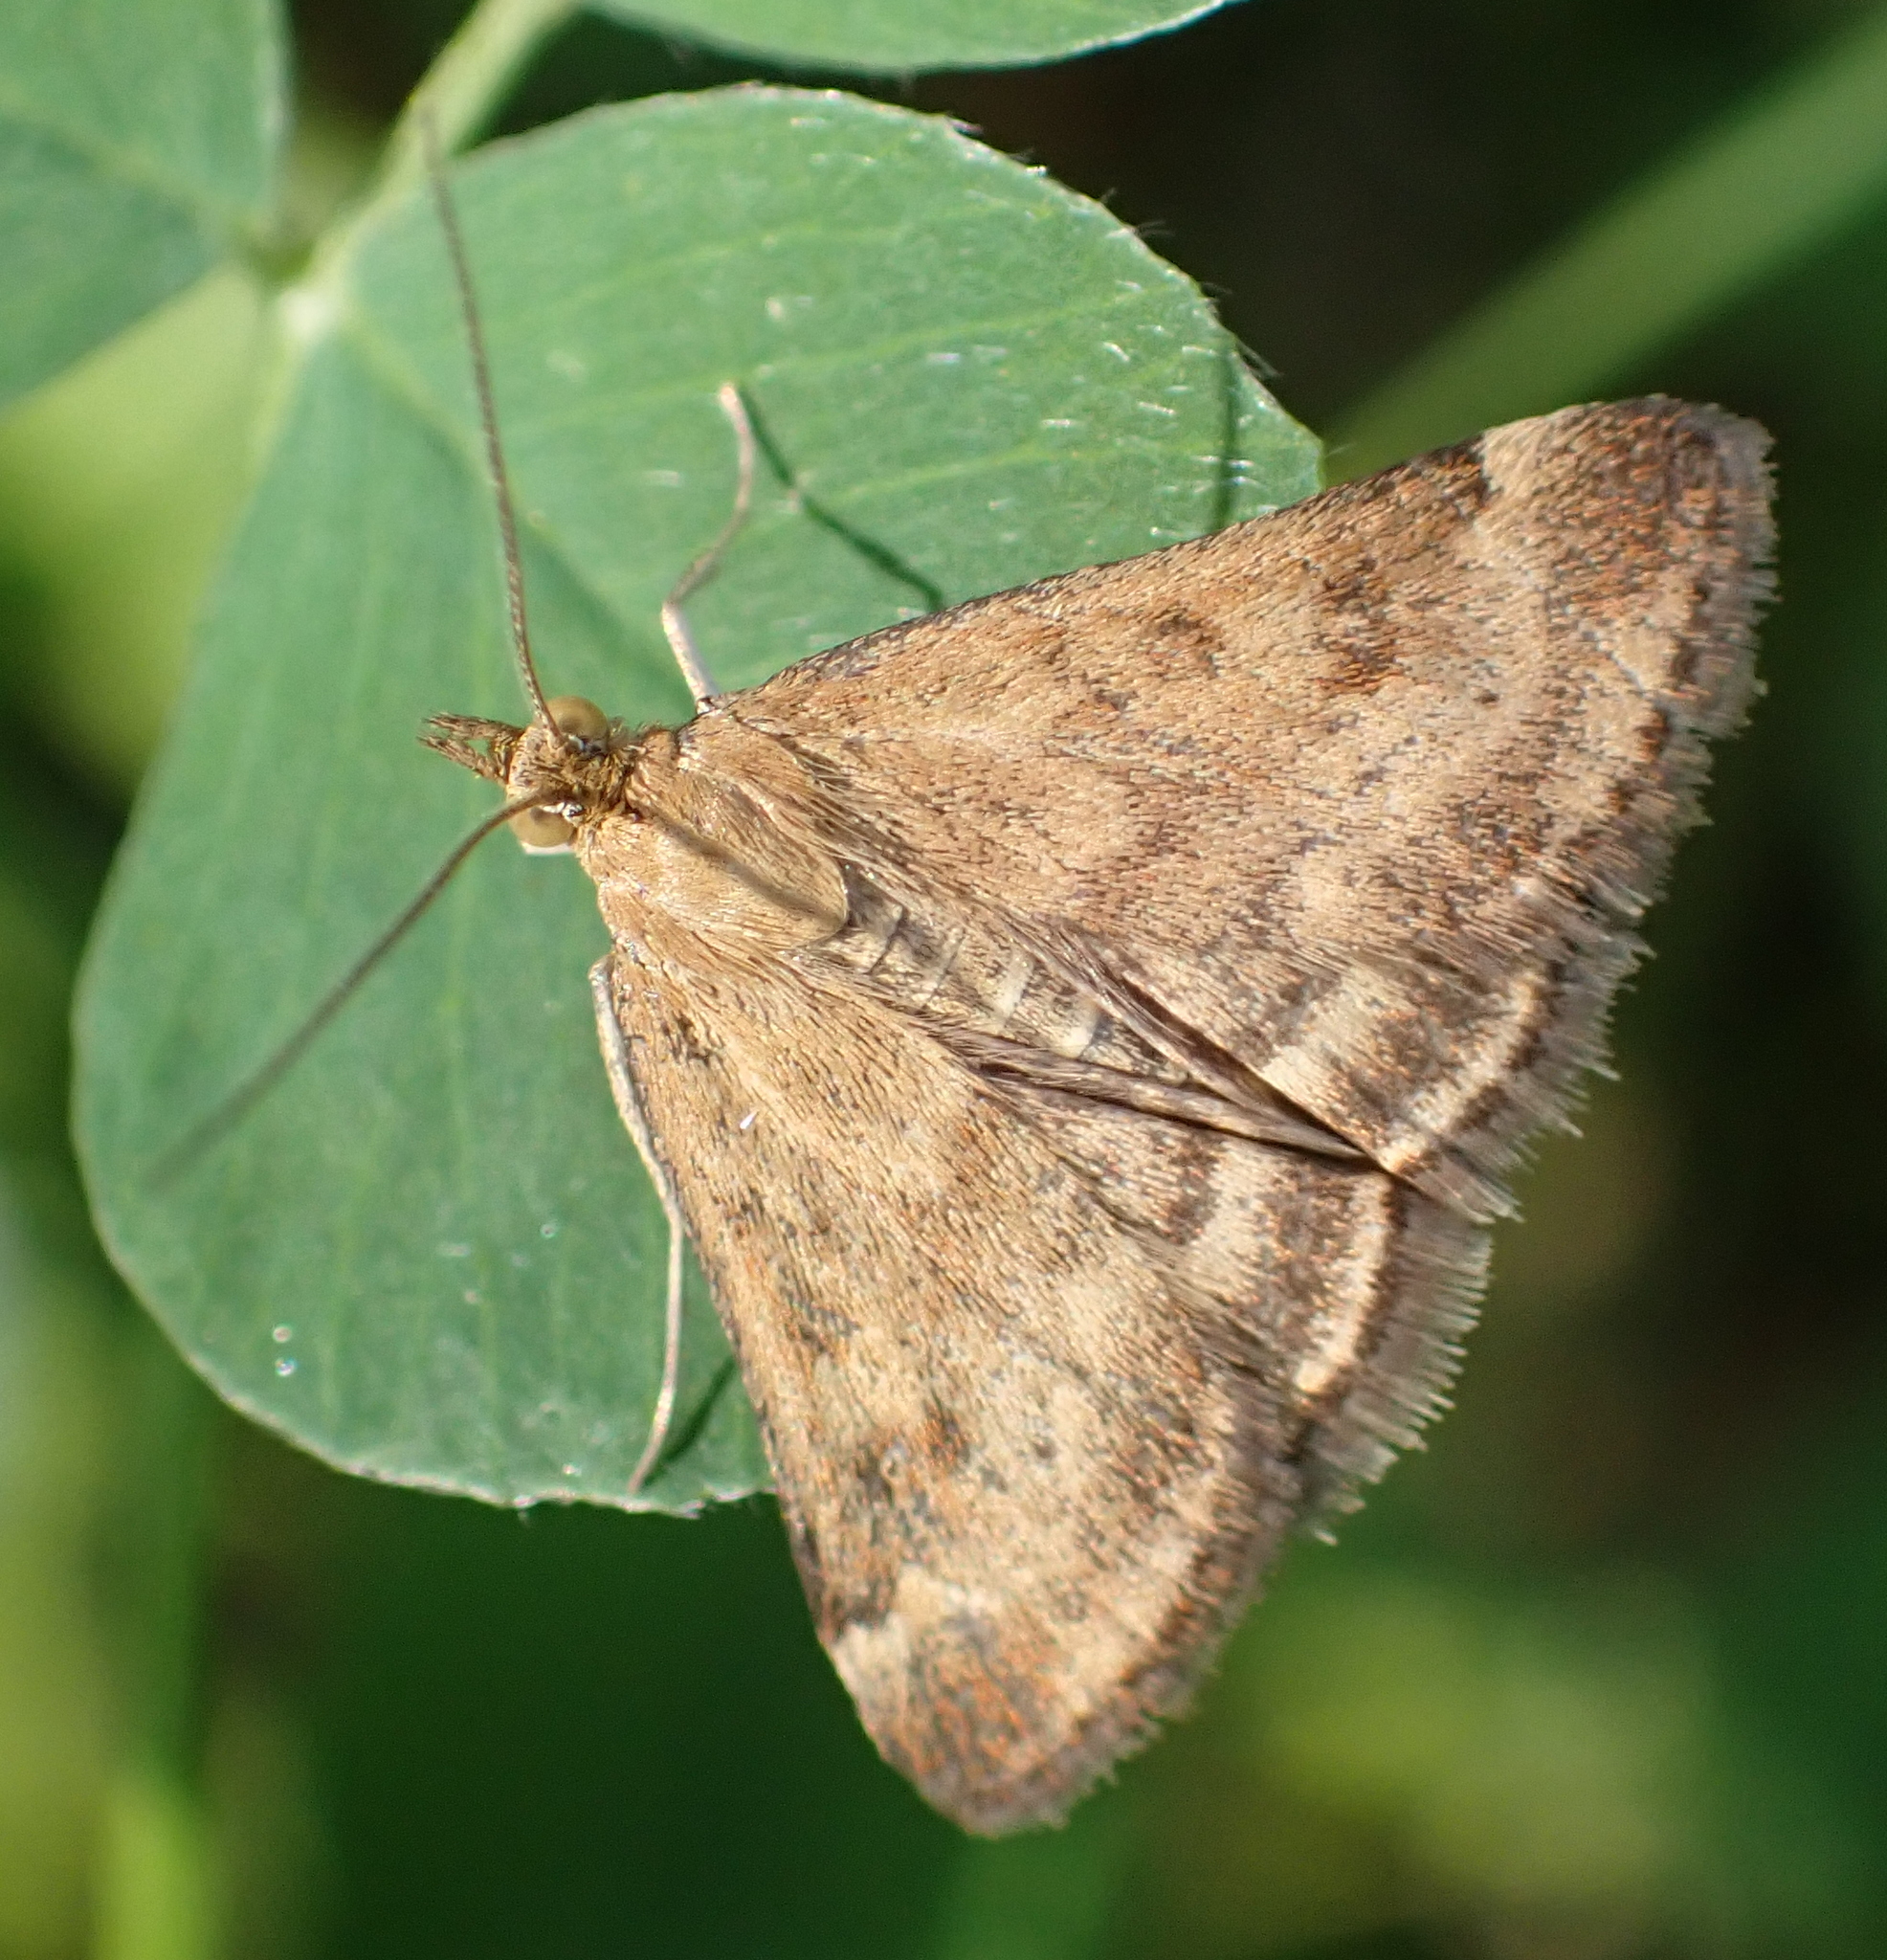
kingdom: Animalia
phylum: Arthropoda
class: Insecta
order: Lepidoptera
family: Crambidae
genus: Pyrausta
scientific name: Pyrausta despicata
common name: Straw-barred pearl
